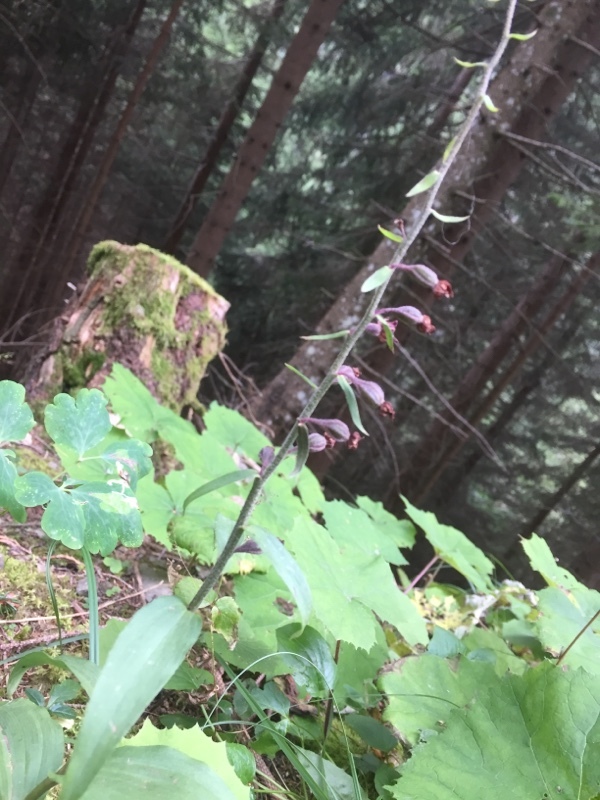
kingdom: Plantae
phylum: Tracheophyta
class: Liliopsida
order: Asparagales
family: Orchidaceae
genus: Epipactis
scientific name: Epipactis atrorubens
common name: Dark-red helleborine
